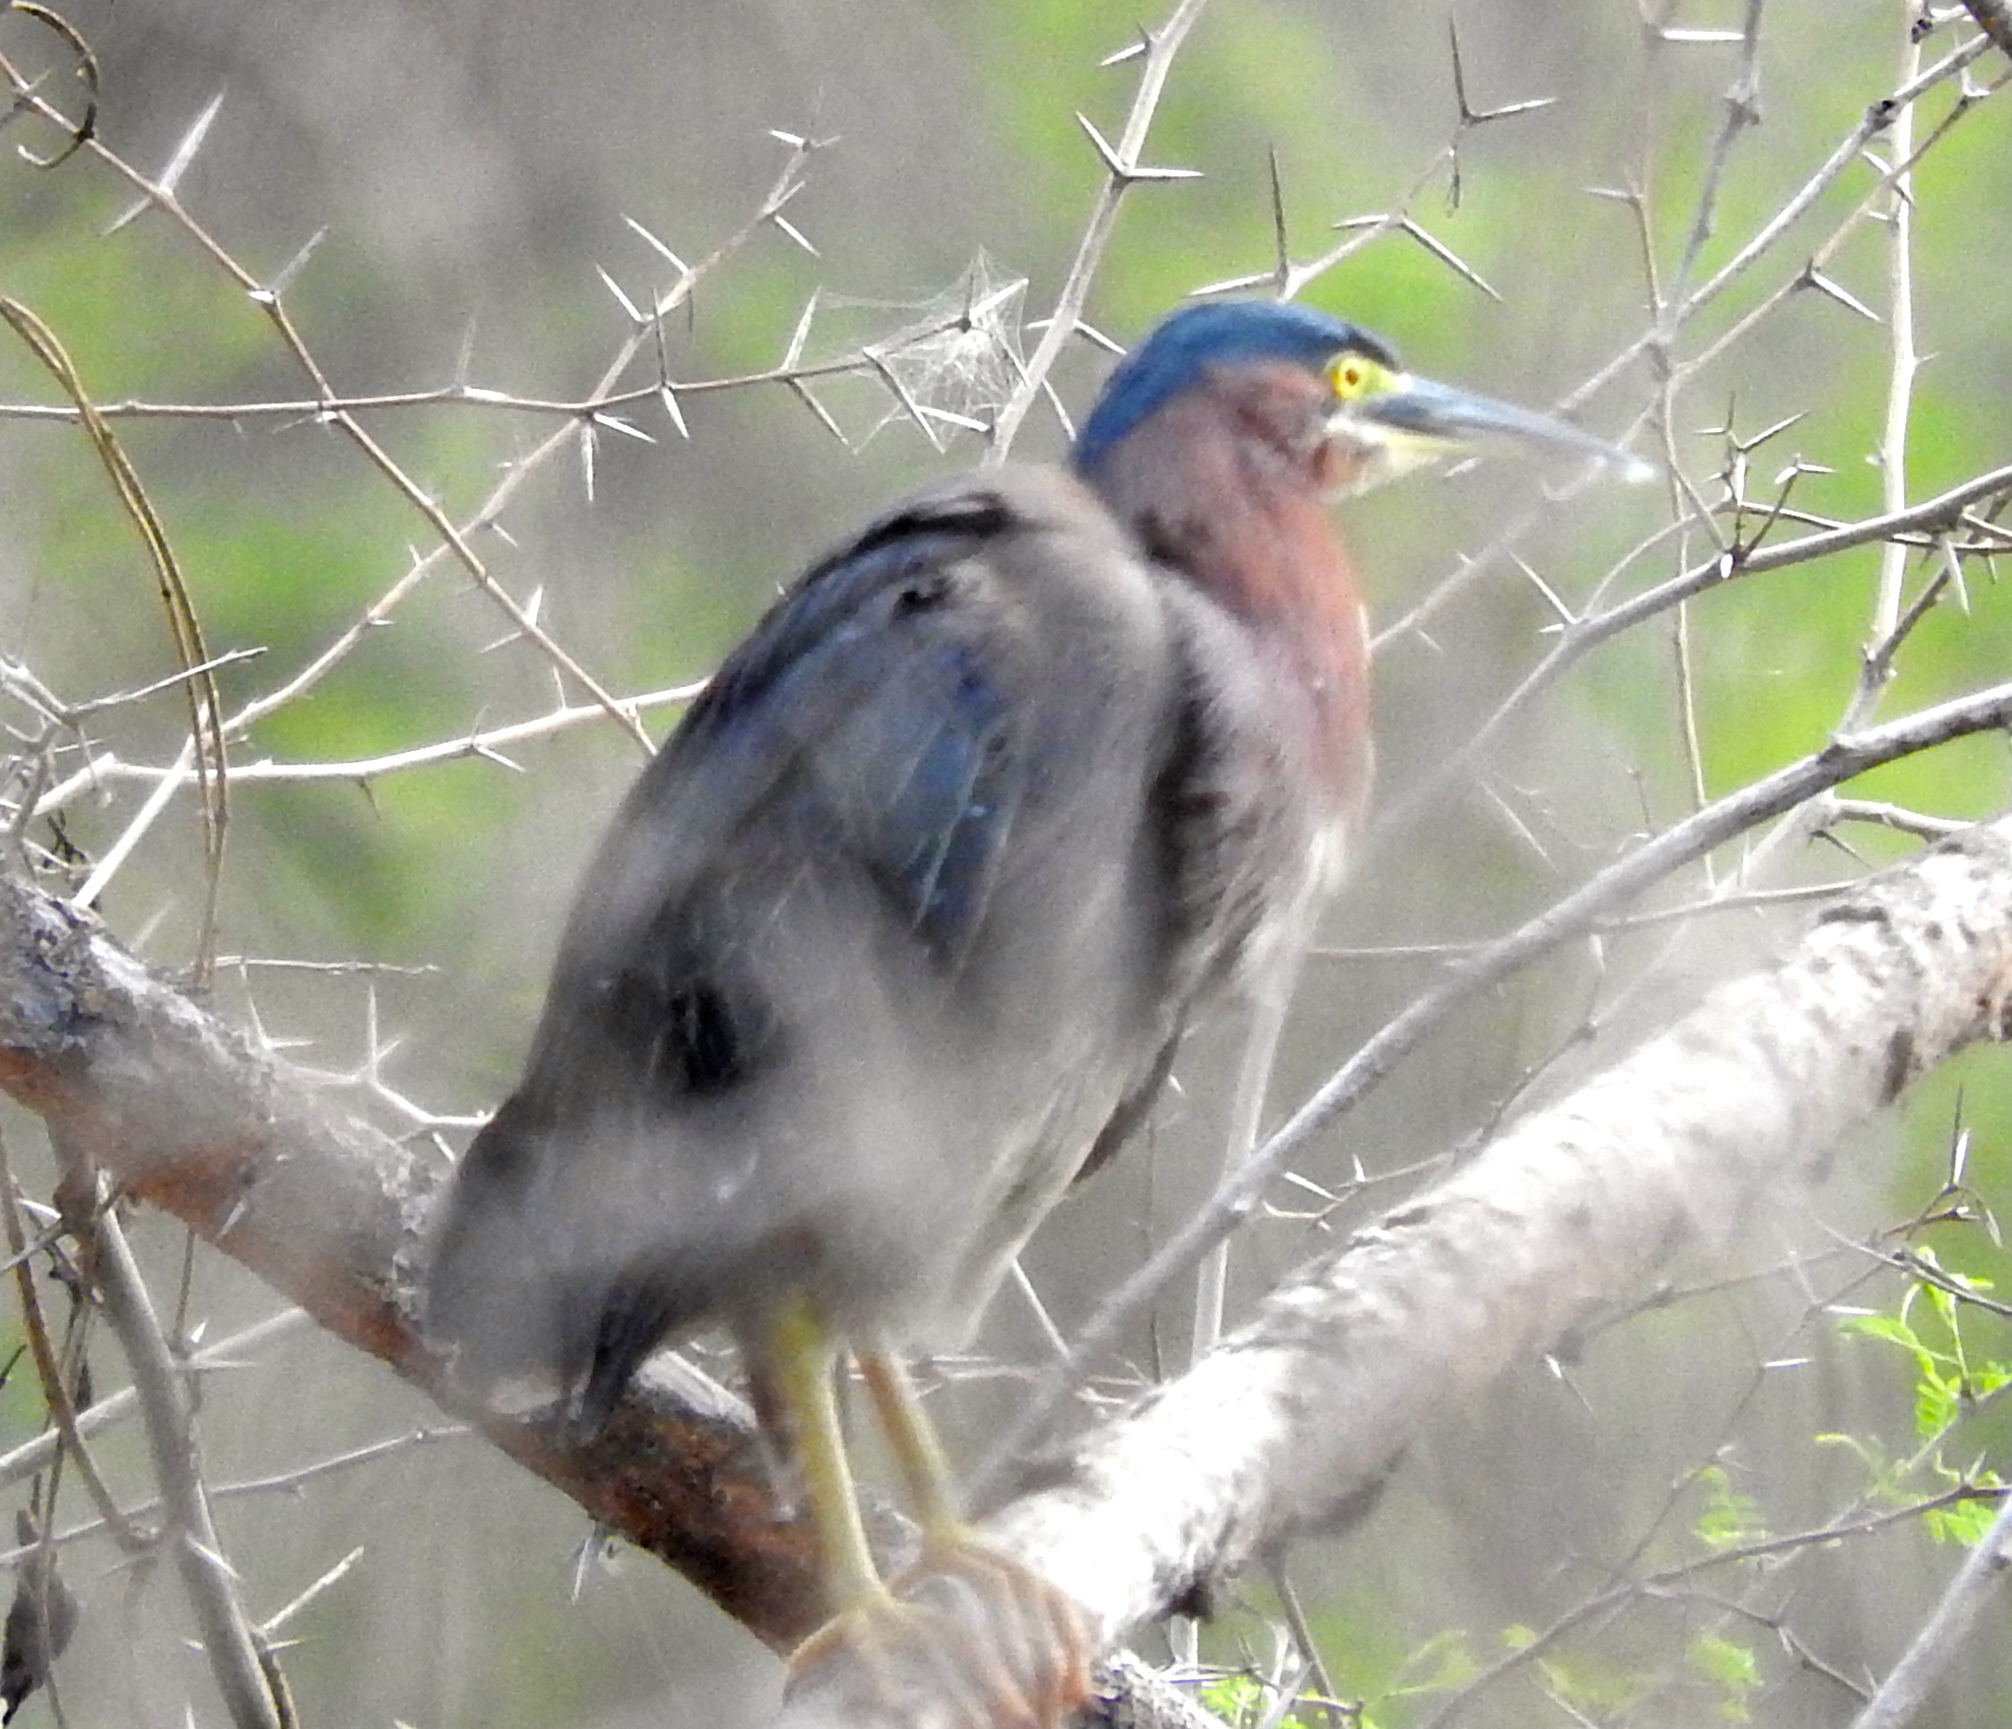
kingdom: Animalia
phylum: Chordata
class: Aves
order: Pelecaniformes
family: Ardeidae
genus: Butorides
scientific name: Butorides virescens
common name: Green heron
